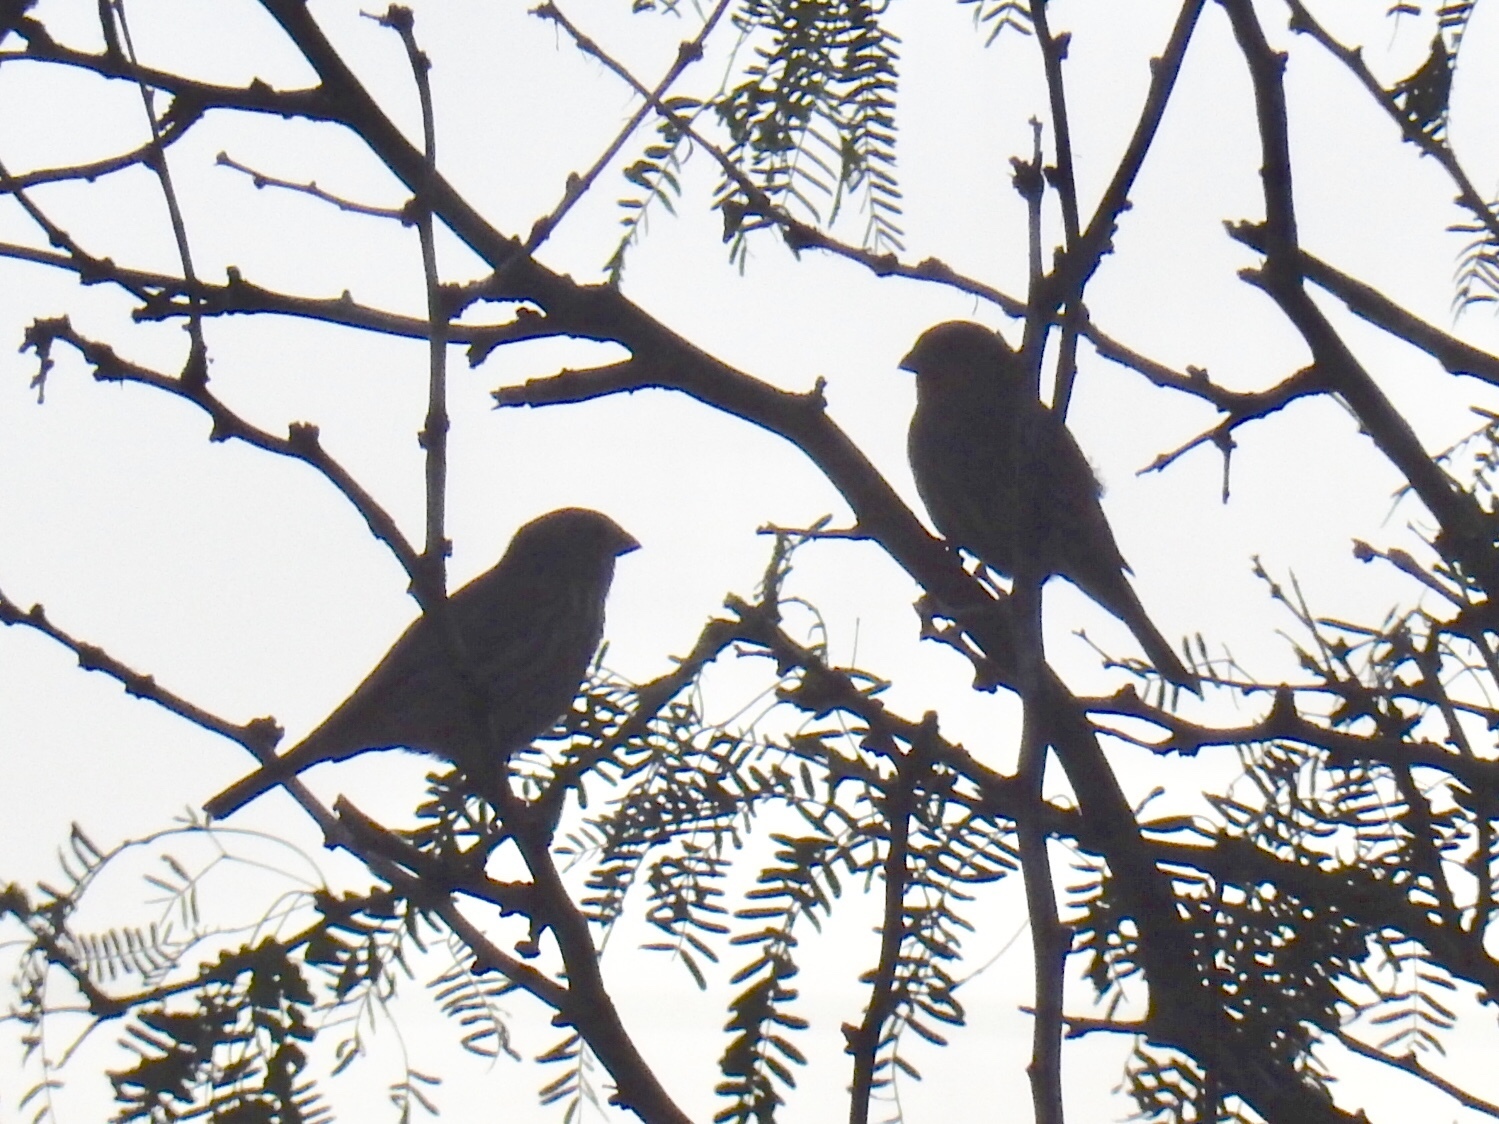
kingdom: Animalia
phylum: Chordata
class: Aves
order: Passeriformes
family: Fringillidae
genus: Haemorhous
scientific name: Haemorhous mexicanus
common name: House finch
